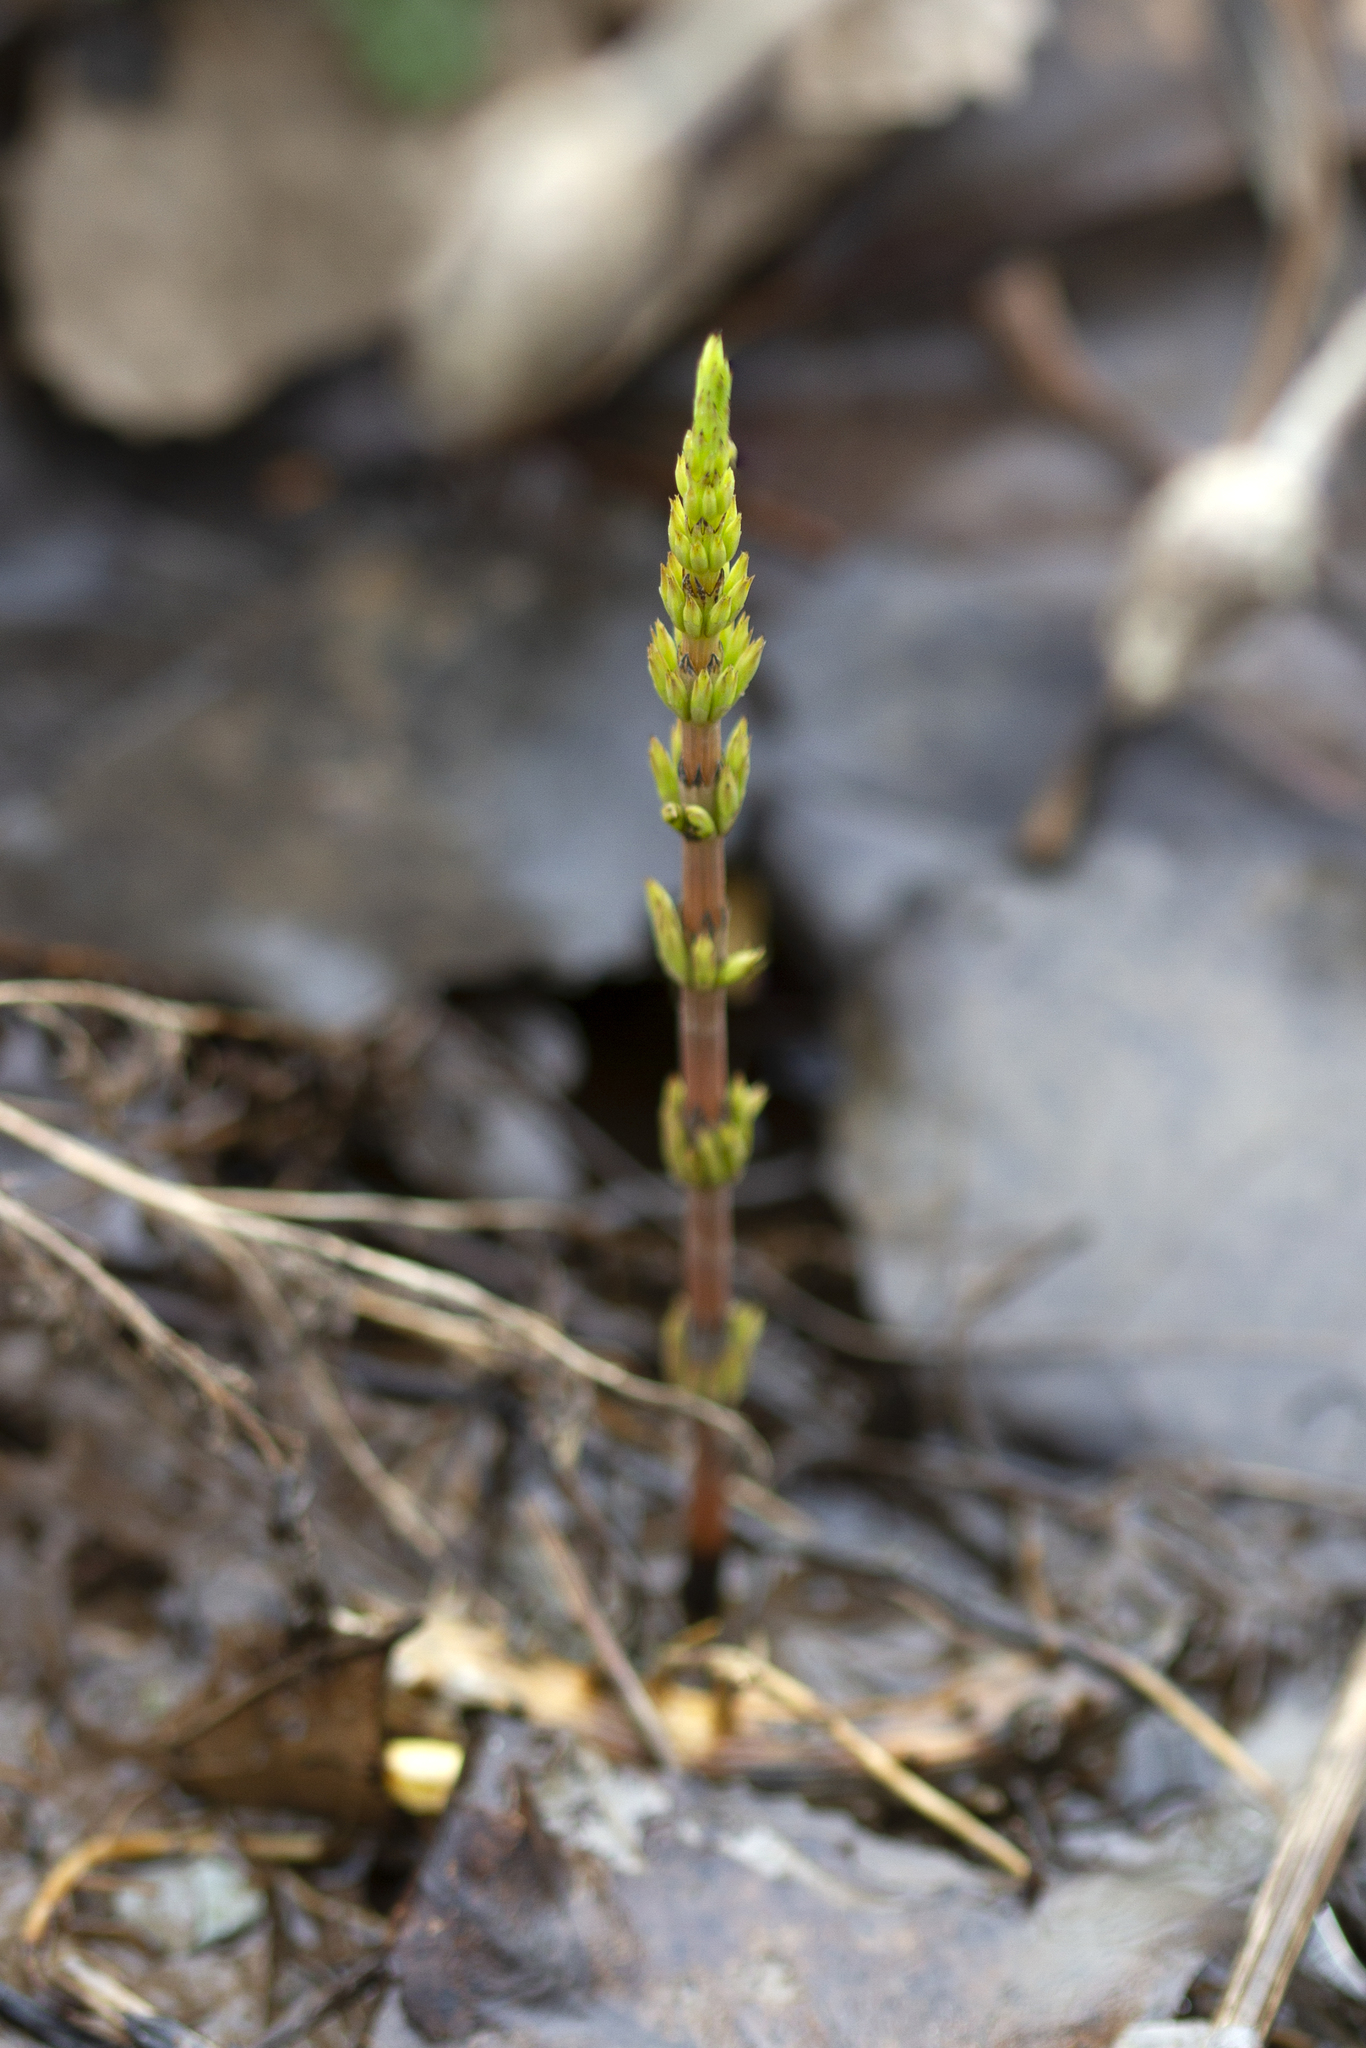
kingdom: Plantae
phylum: Tracheophyta
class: Polypodiopsida
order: Equisetales
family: Equisetaceae
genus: Equisetum
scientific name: Equisetum arvense
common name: Field horsetail
